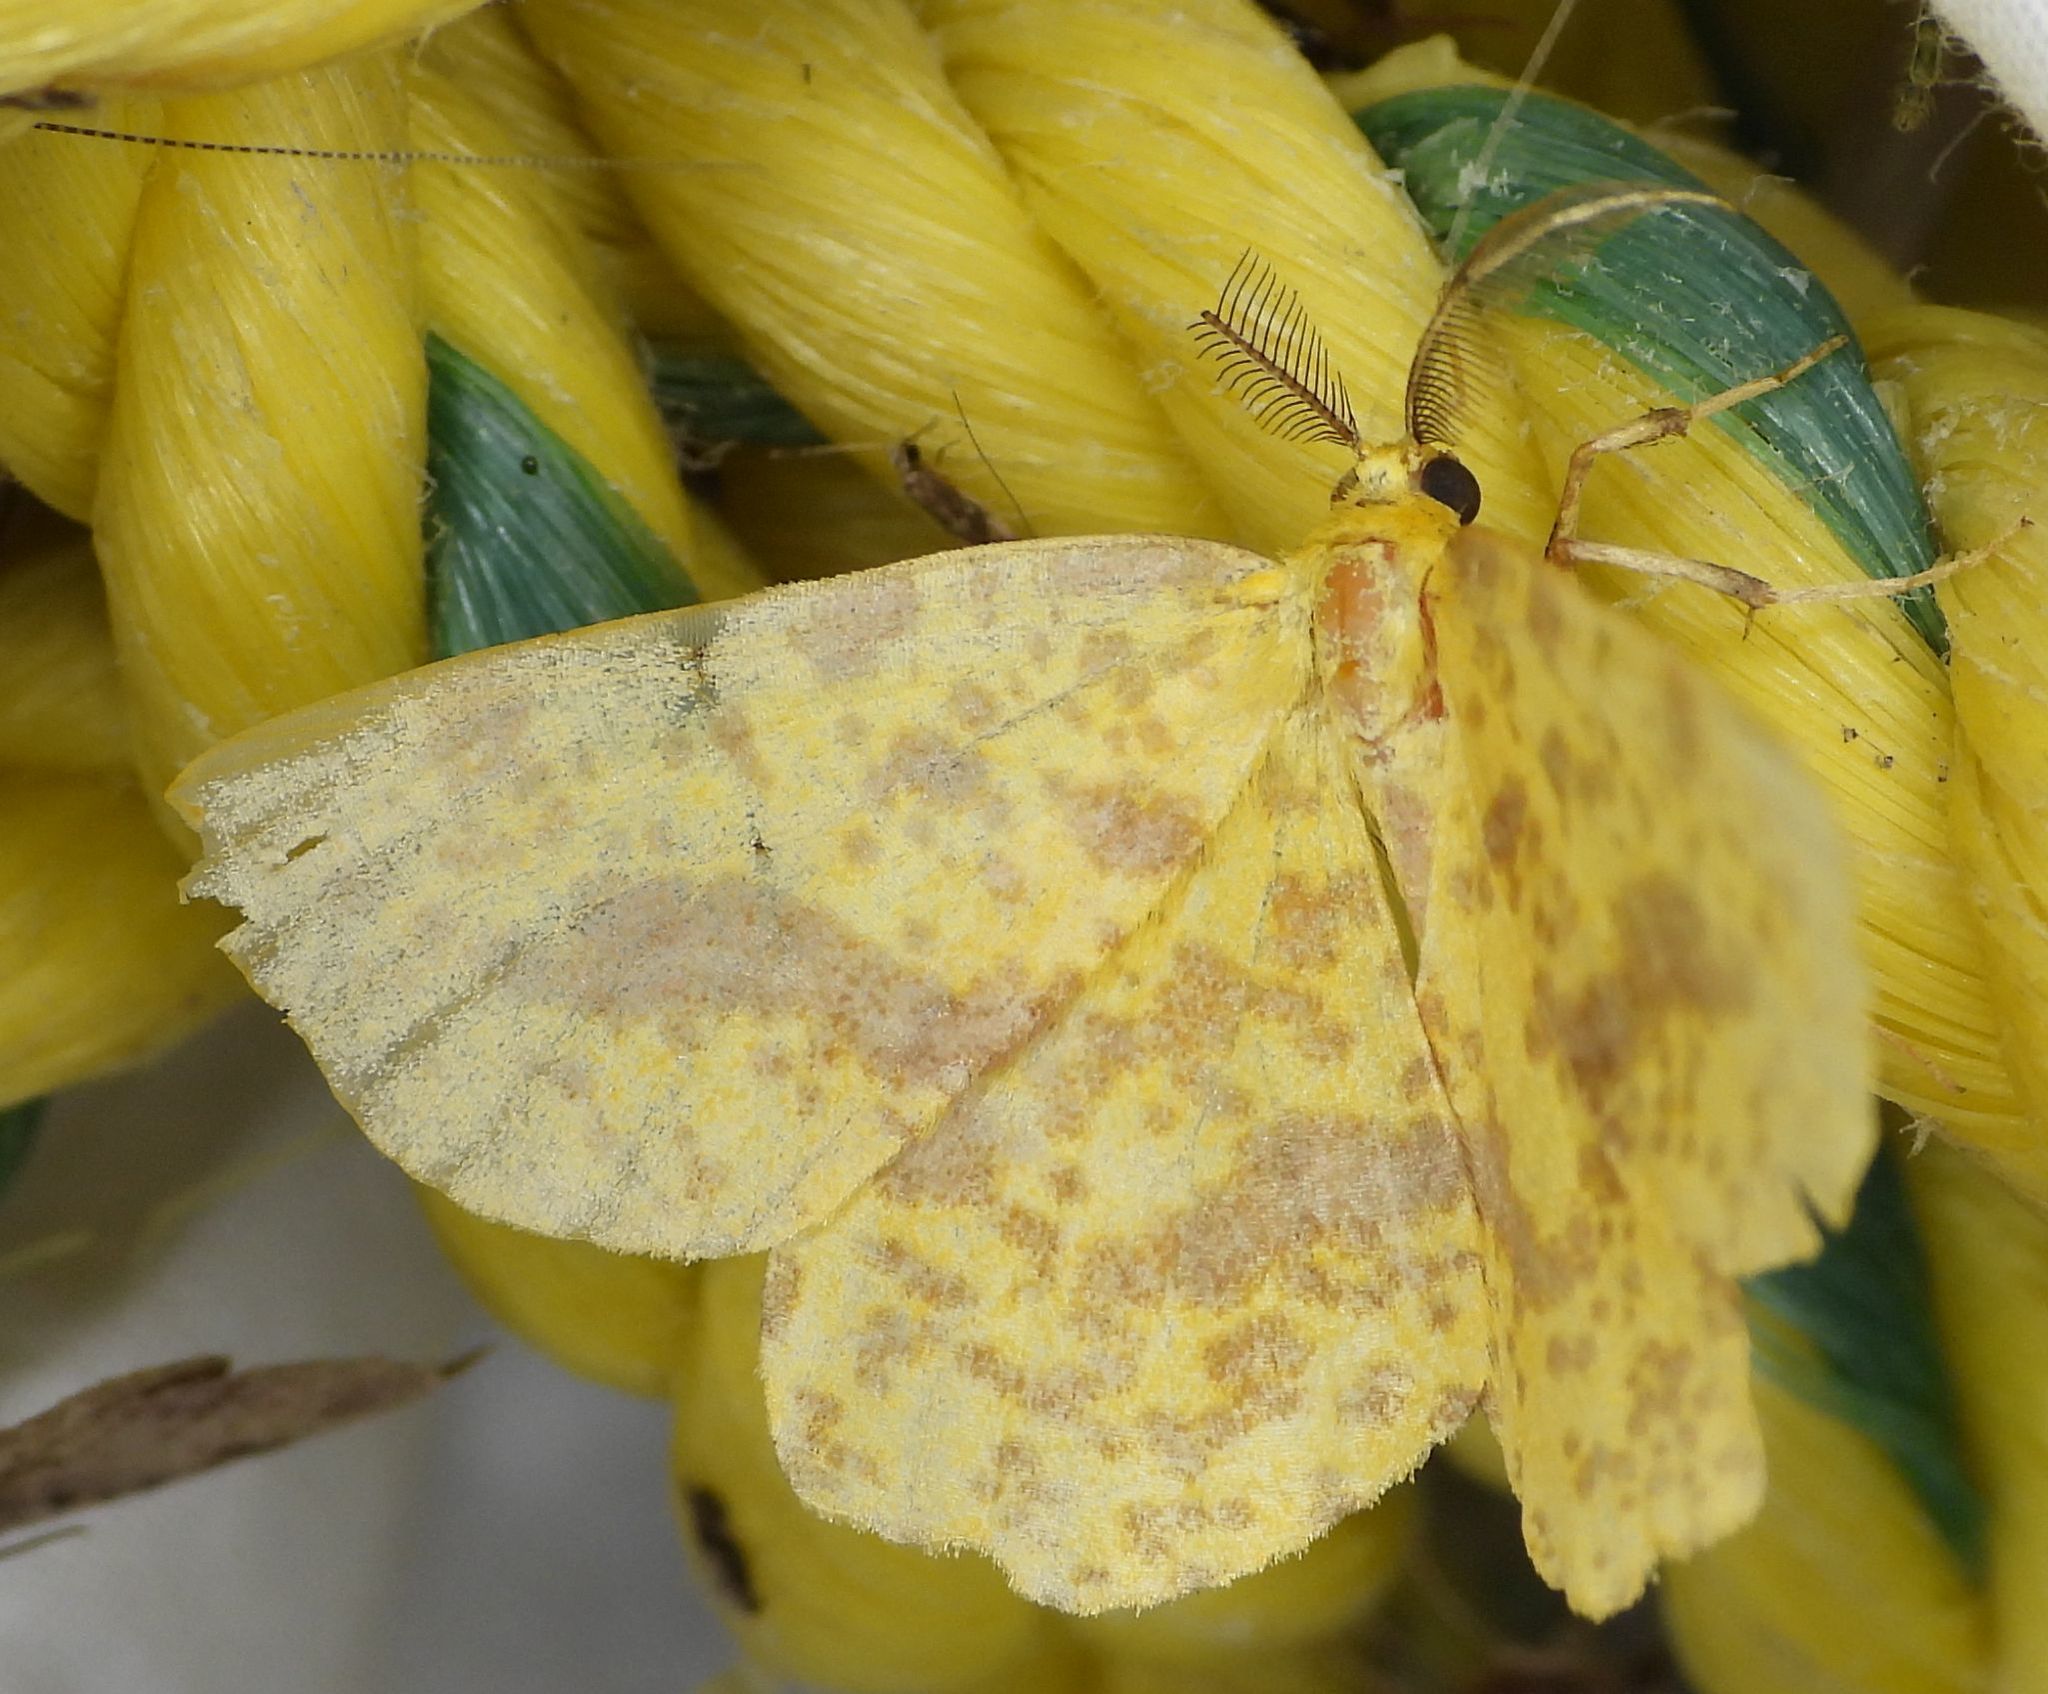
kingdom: Animalia
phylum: Arthropoda
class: Insecta
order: Lepidoptera
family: Geometridae
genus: Xanthotype
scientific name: Xanthotype
